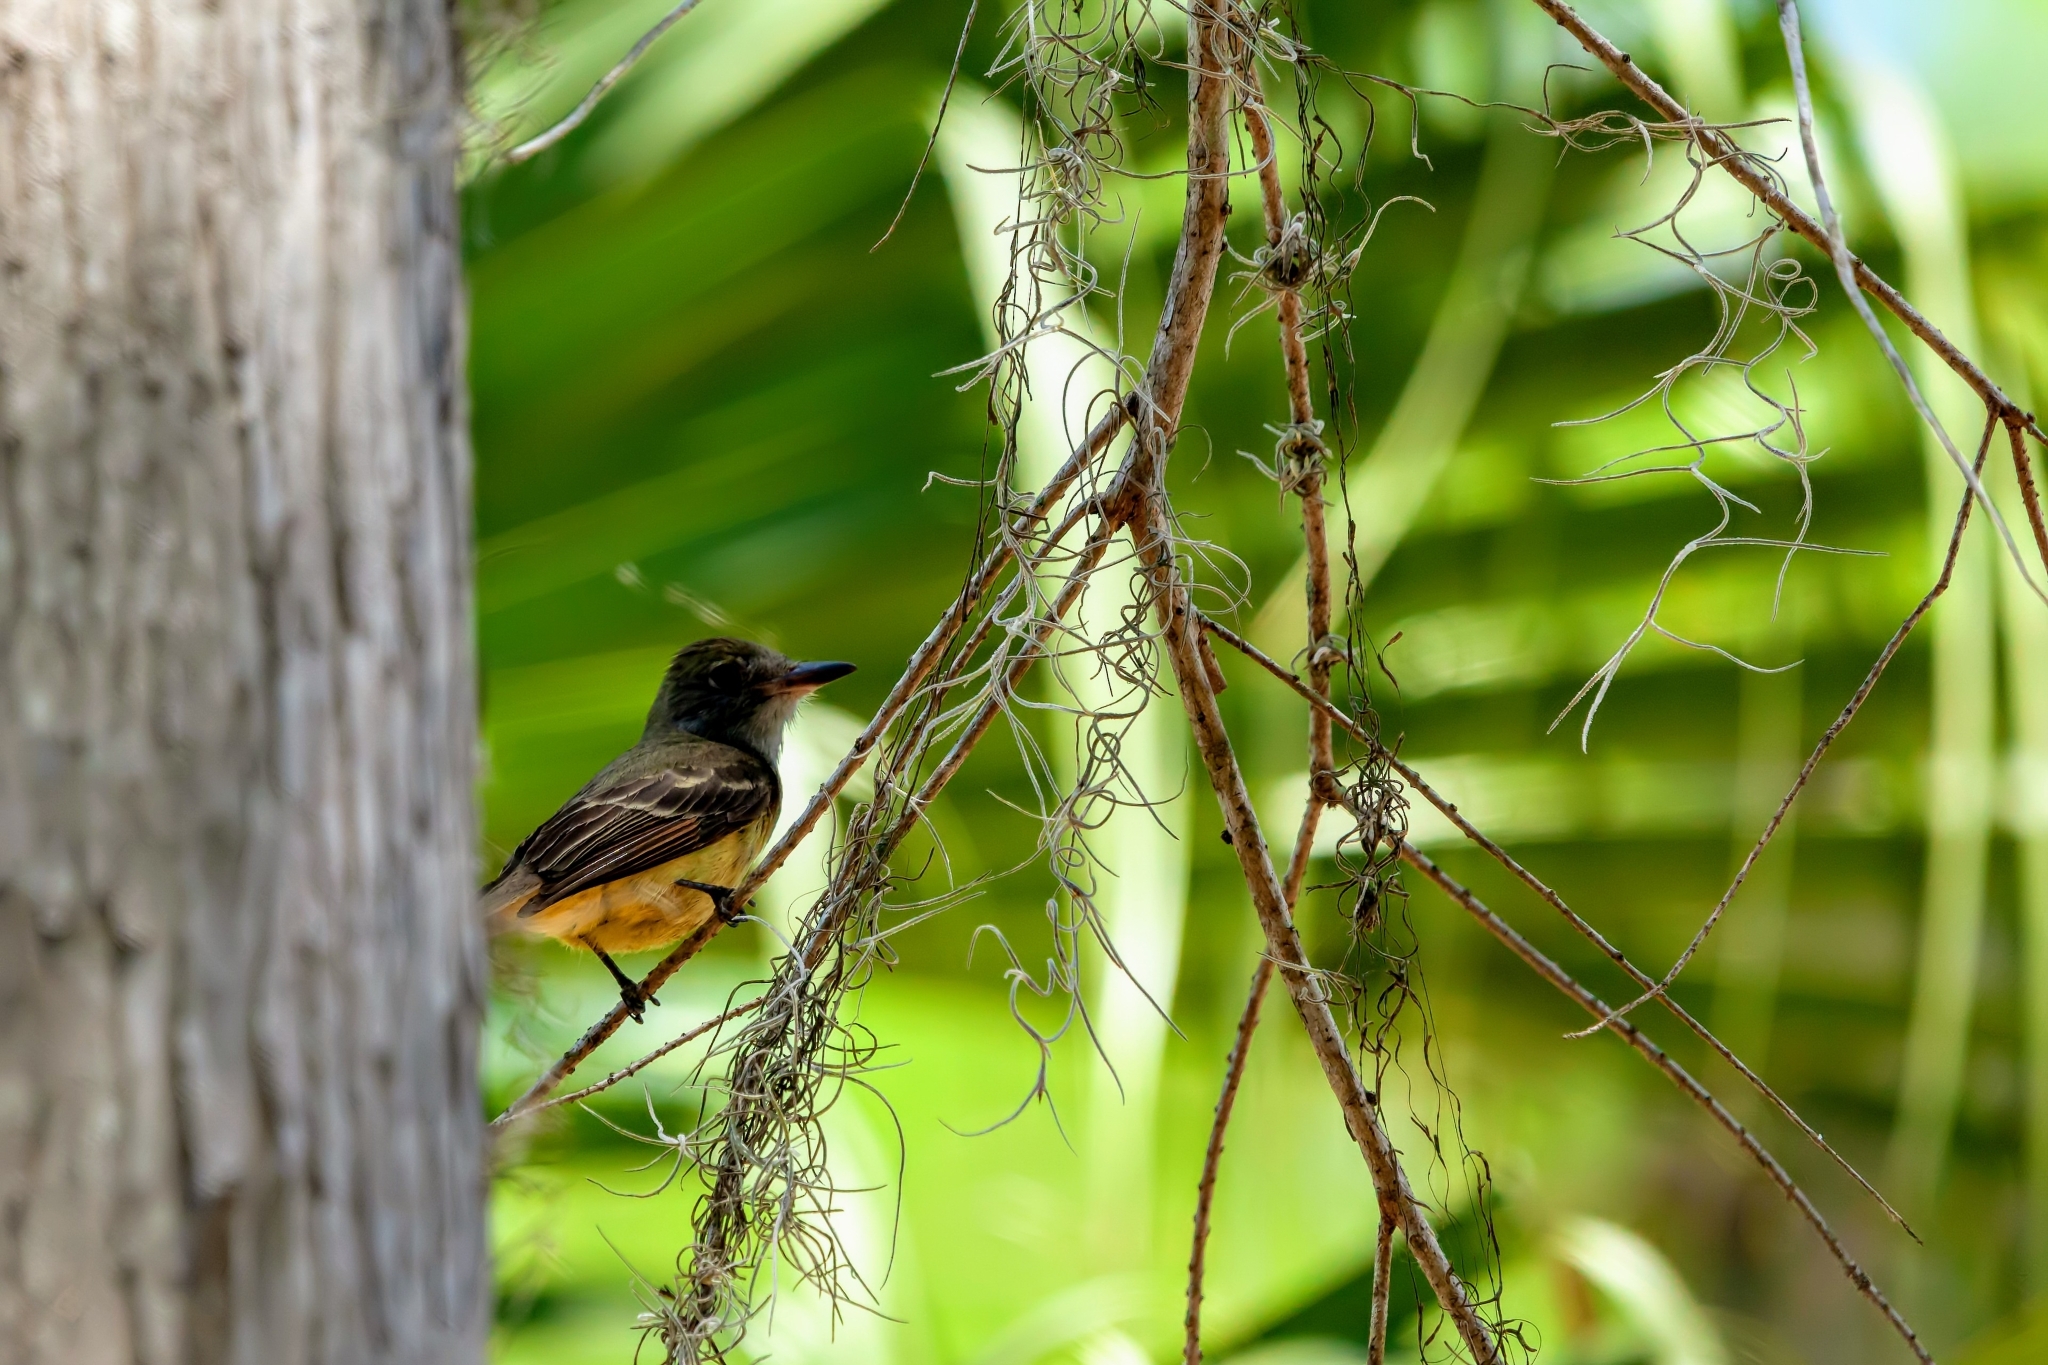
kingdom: Animalia
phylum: Chordata
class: Aves
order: Passeriformes
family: Tyrannidae
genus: Myiarchus
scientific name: Myiarchus crinitus
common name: Great crested flycatcher
